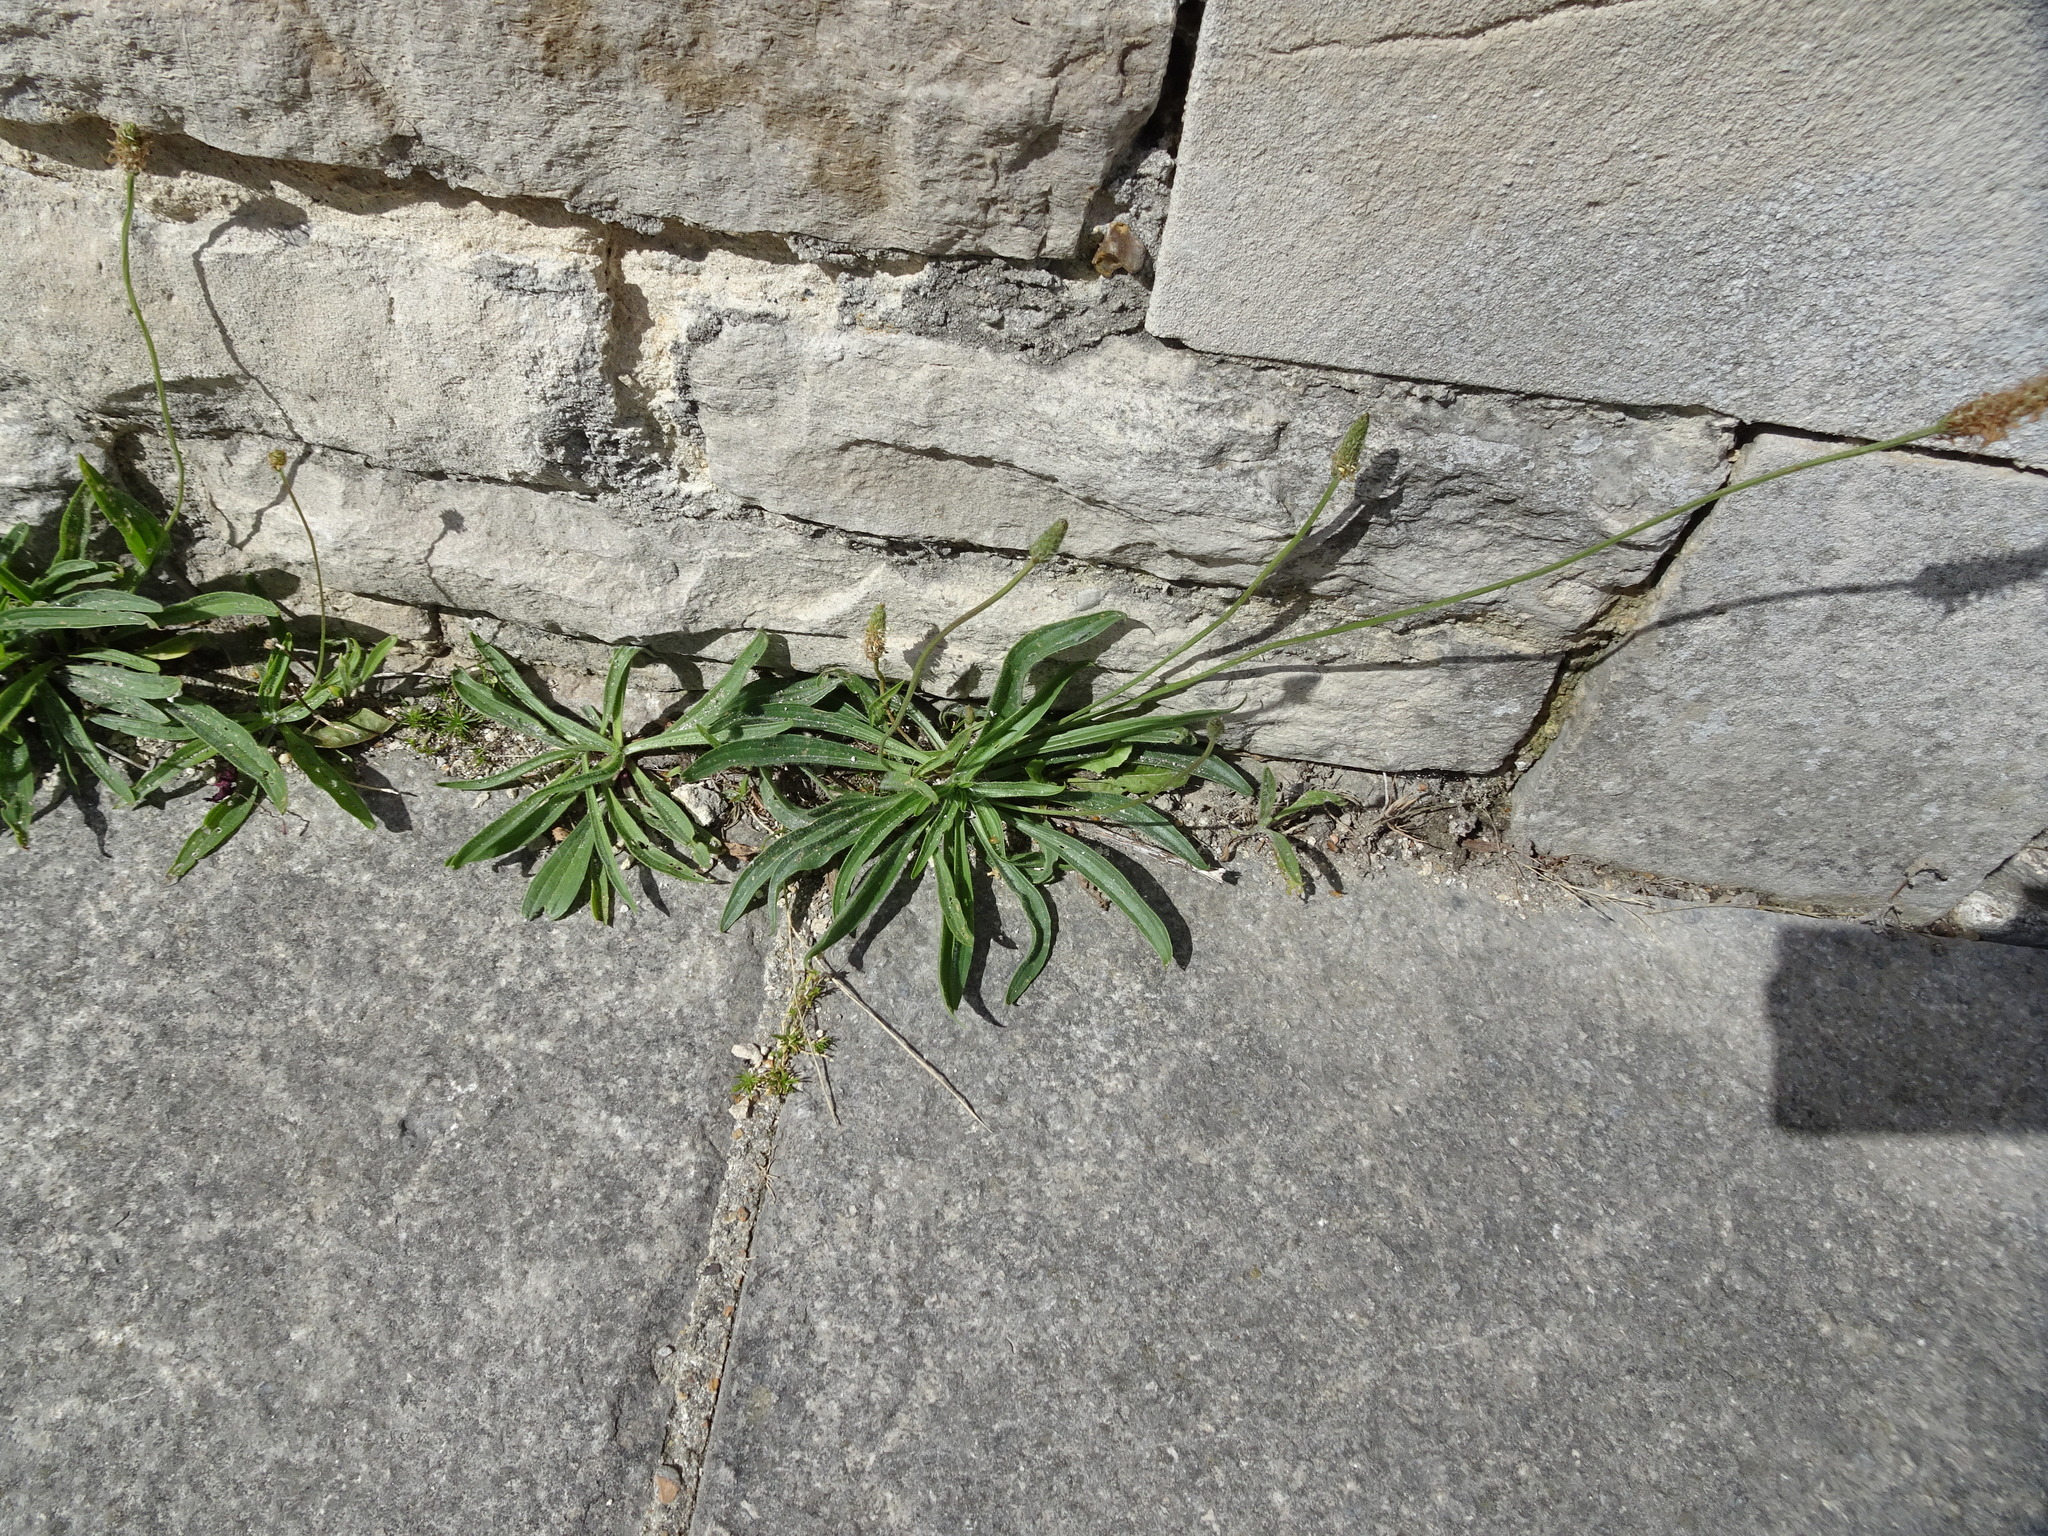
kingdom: Plantae
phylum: Tracheophyta
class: Magnoliopsida
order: Lamiales
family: Plantaginaceae
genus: Plantago
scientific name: Plantago lanceolata
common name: Ribwort plantain
